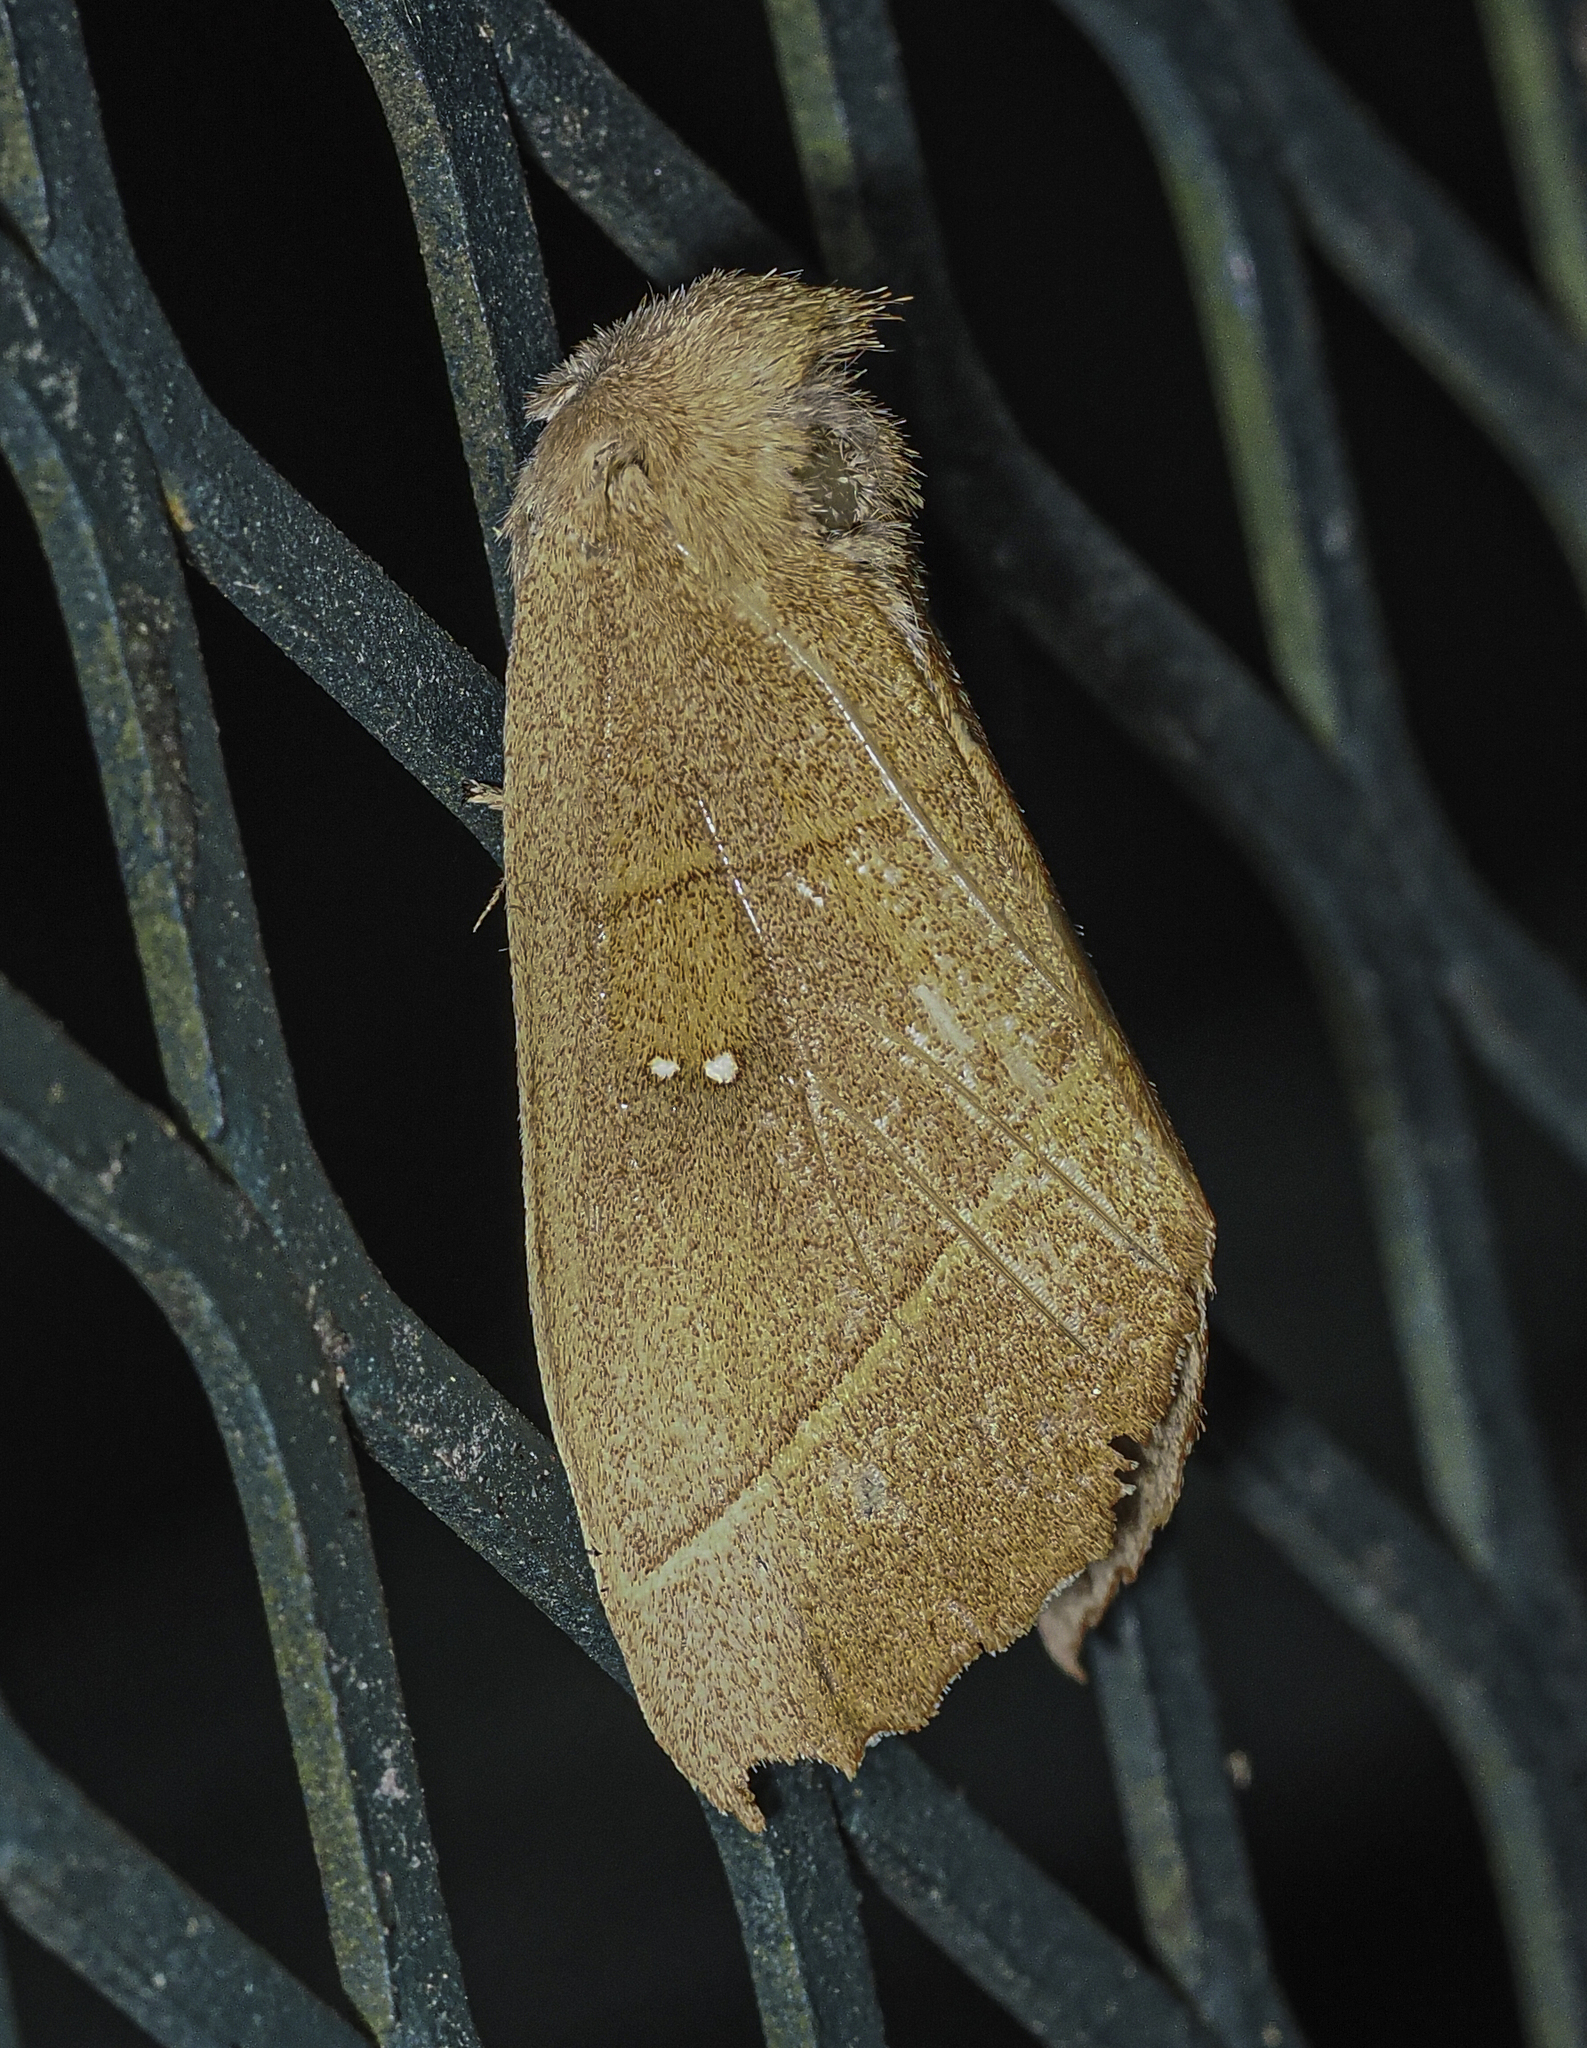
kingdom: Animalia
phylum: Arthropoda
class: Insecta
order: Lepidoptera
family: Notodontidae
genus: Nadata
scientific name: Nadata gibbosa
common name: White-dotted prominent
